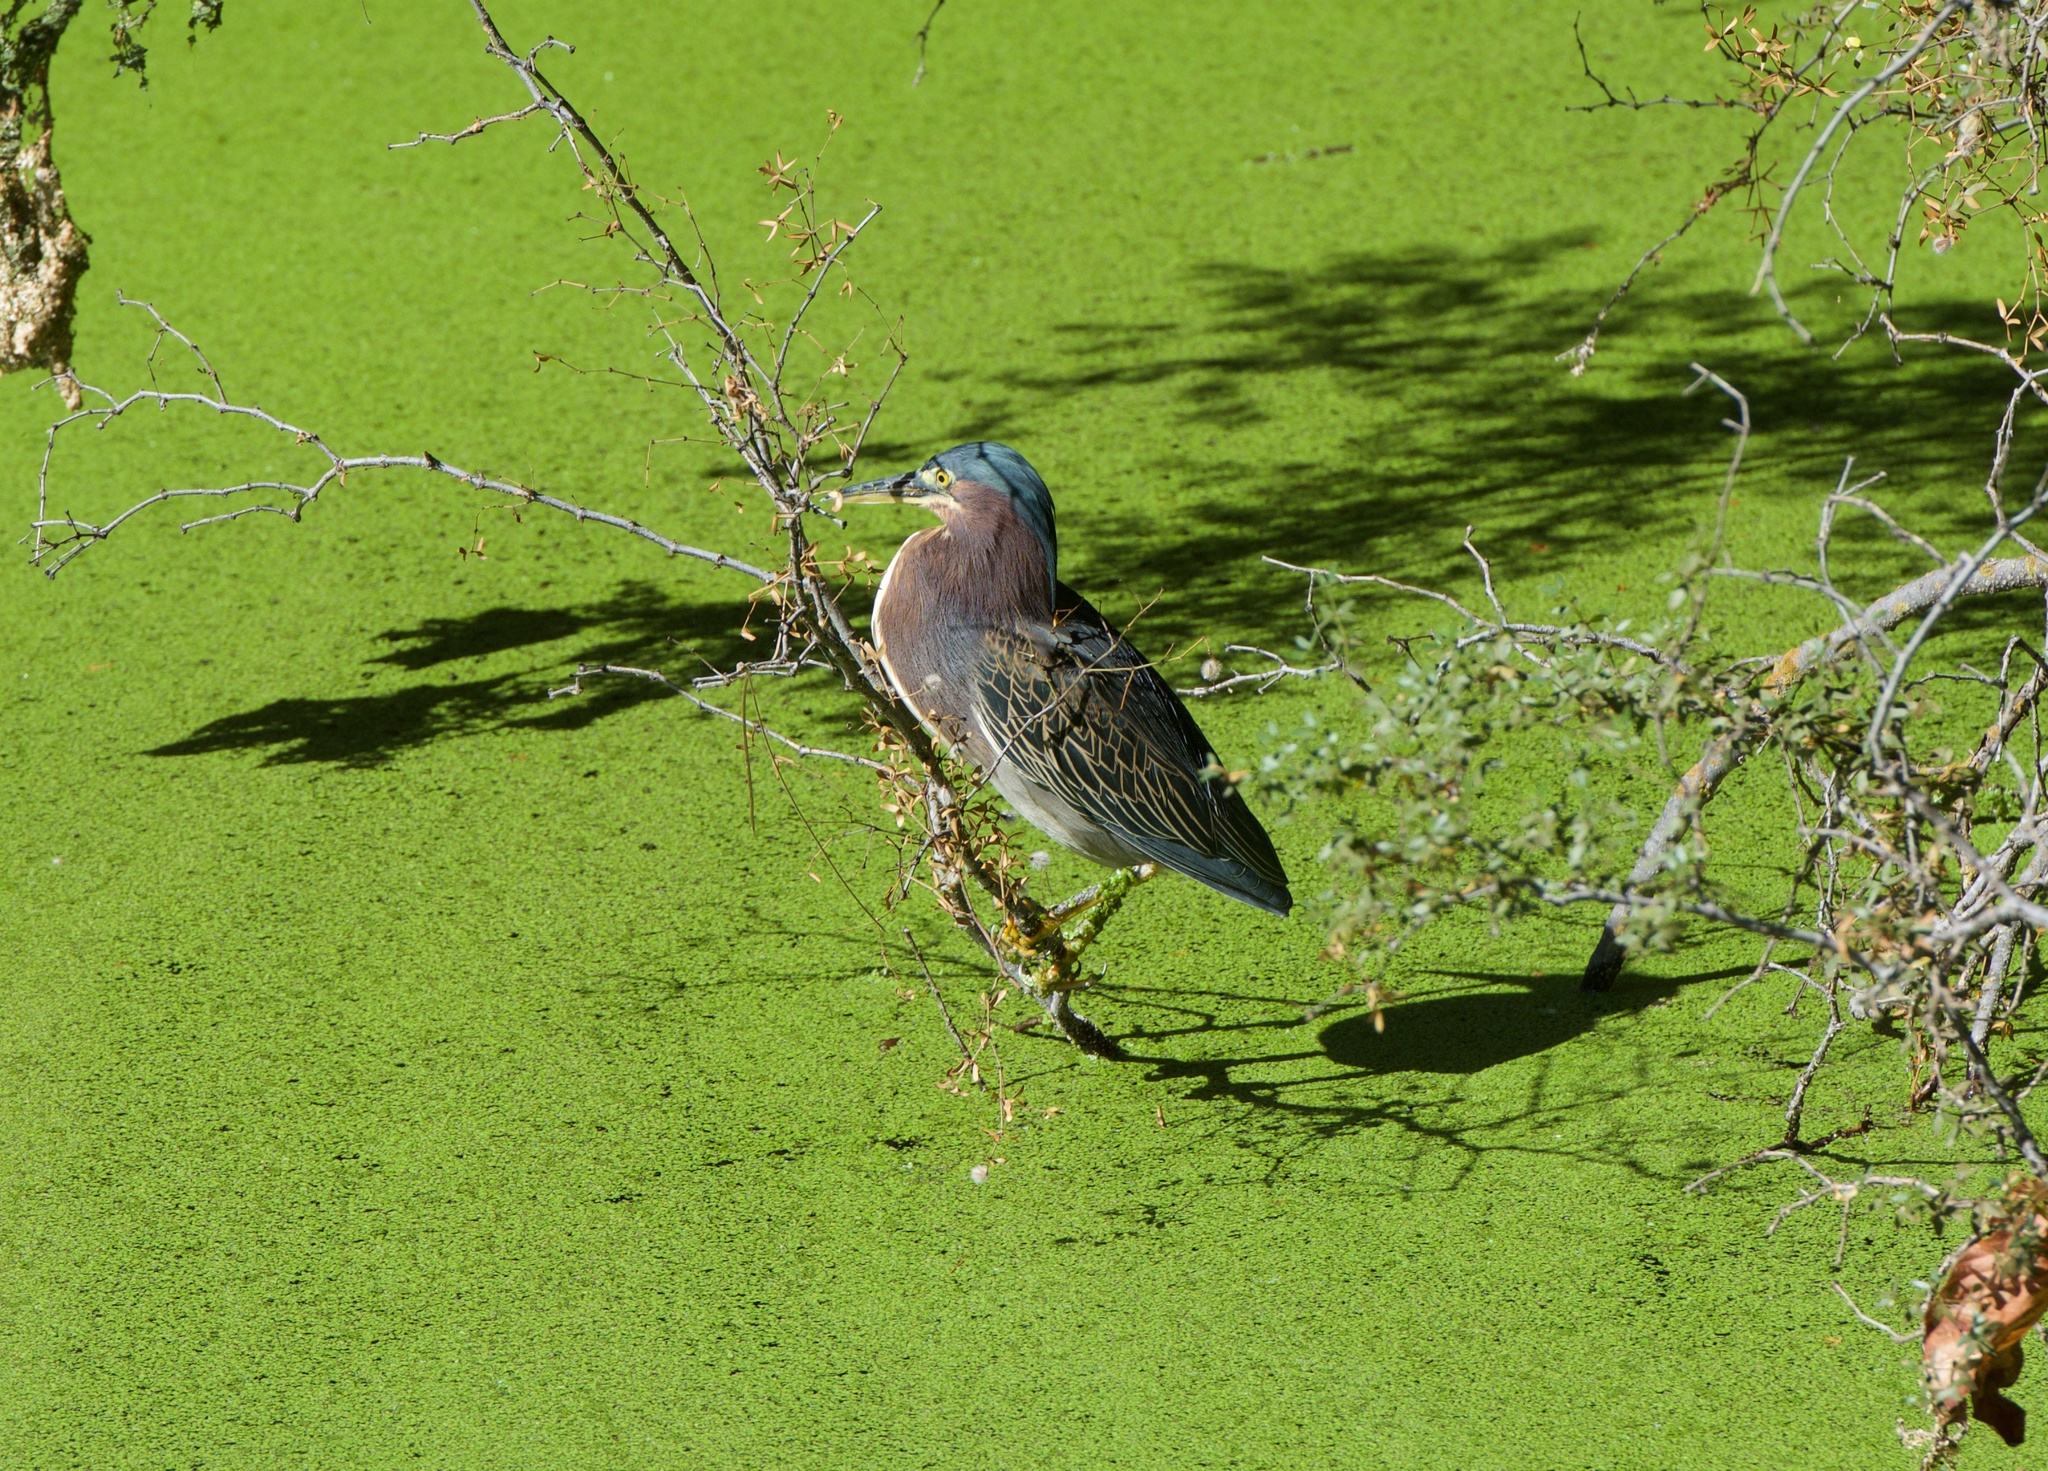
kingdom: Animalia
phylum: Chordata
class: Aves
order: Pelecaniformes
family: Ardeidae
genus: Butorides
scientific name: Butorides virescens
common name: Green heron
